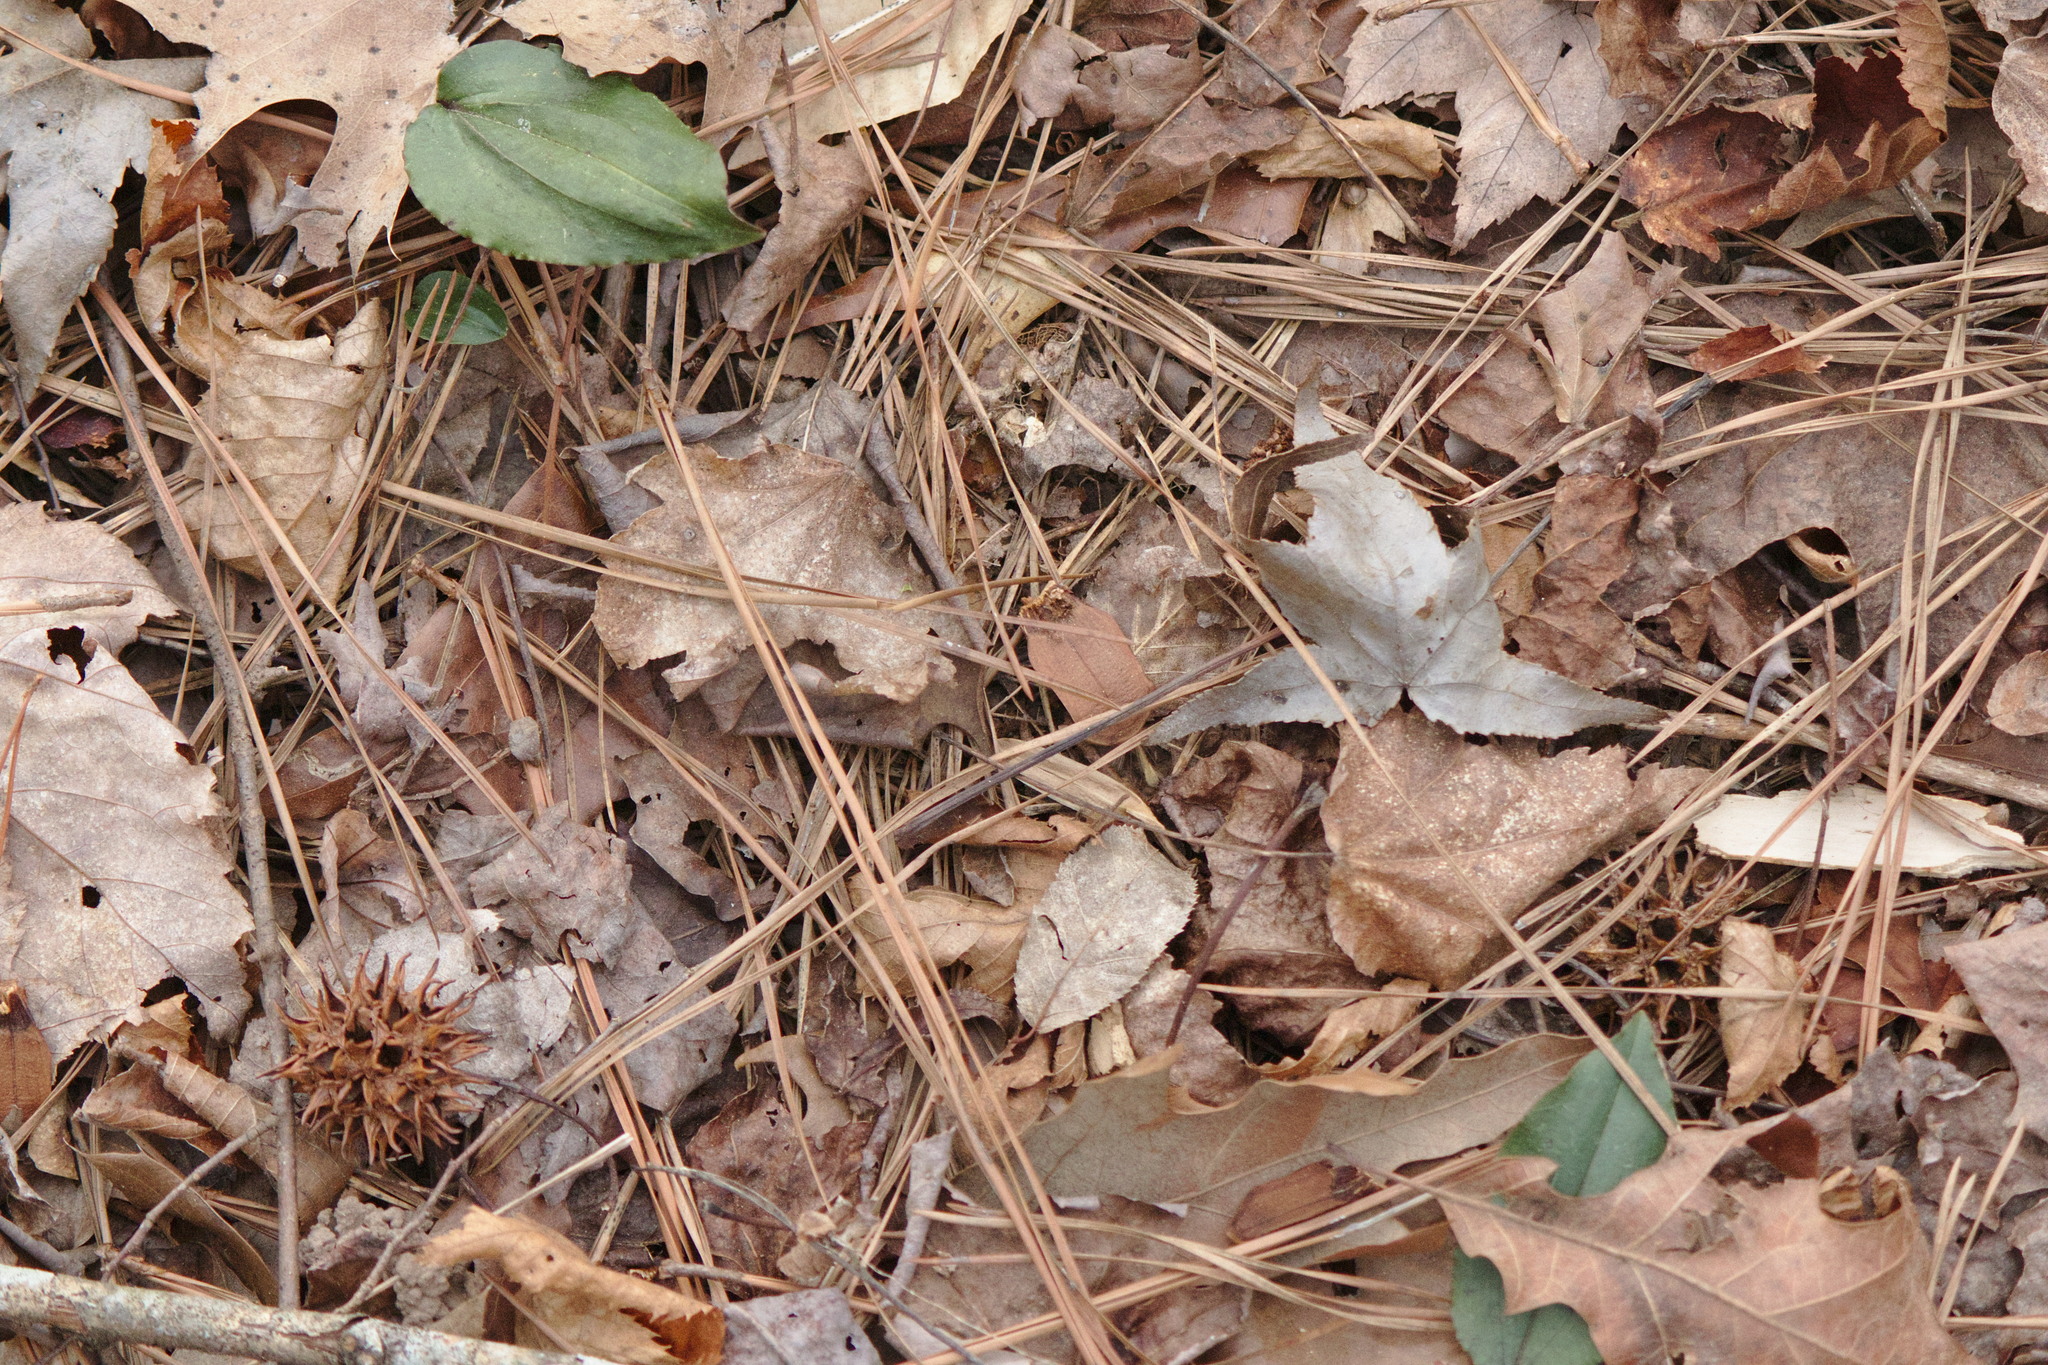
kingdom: Plantae
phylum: Tracheophyta
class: Liliopsida
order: Asparagales
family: Orchidaceae
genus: Tipularia
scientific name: Tipularia discolor
